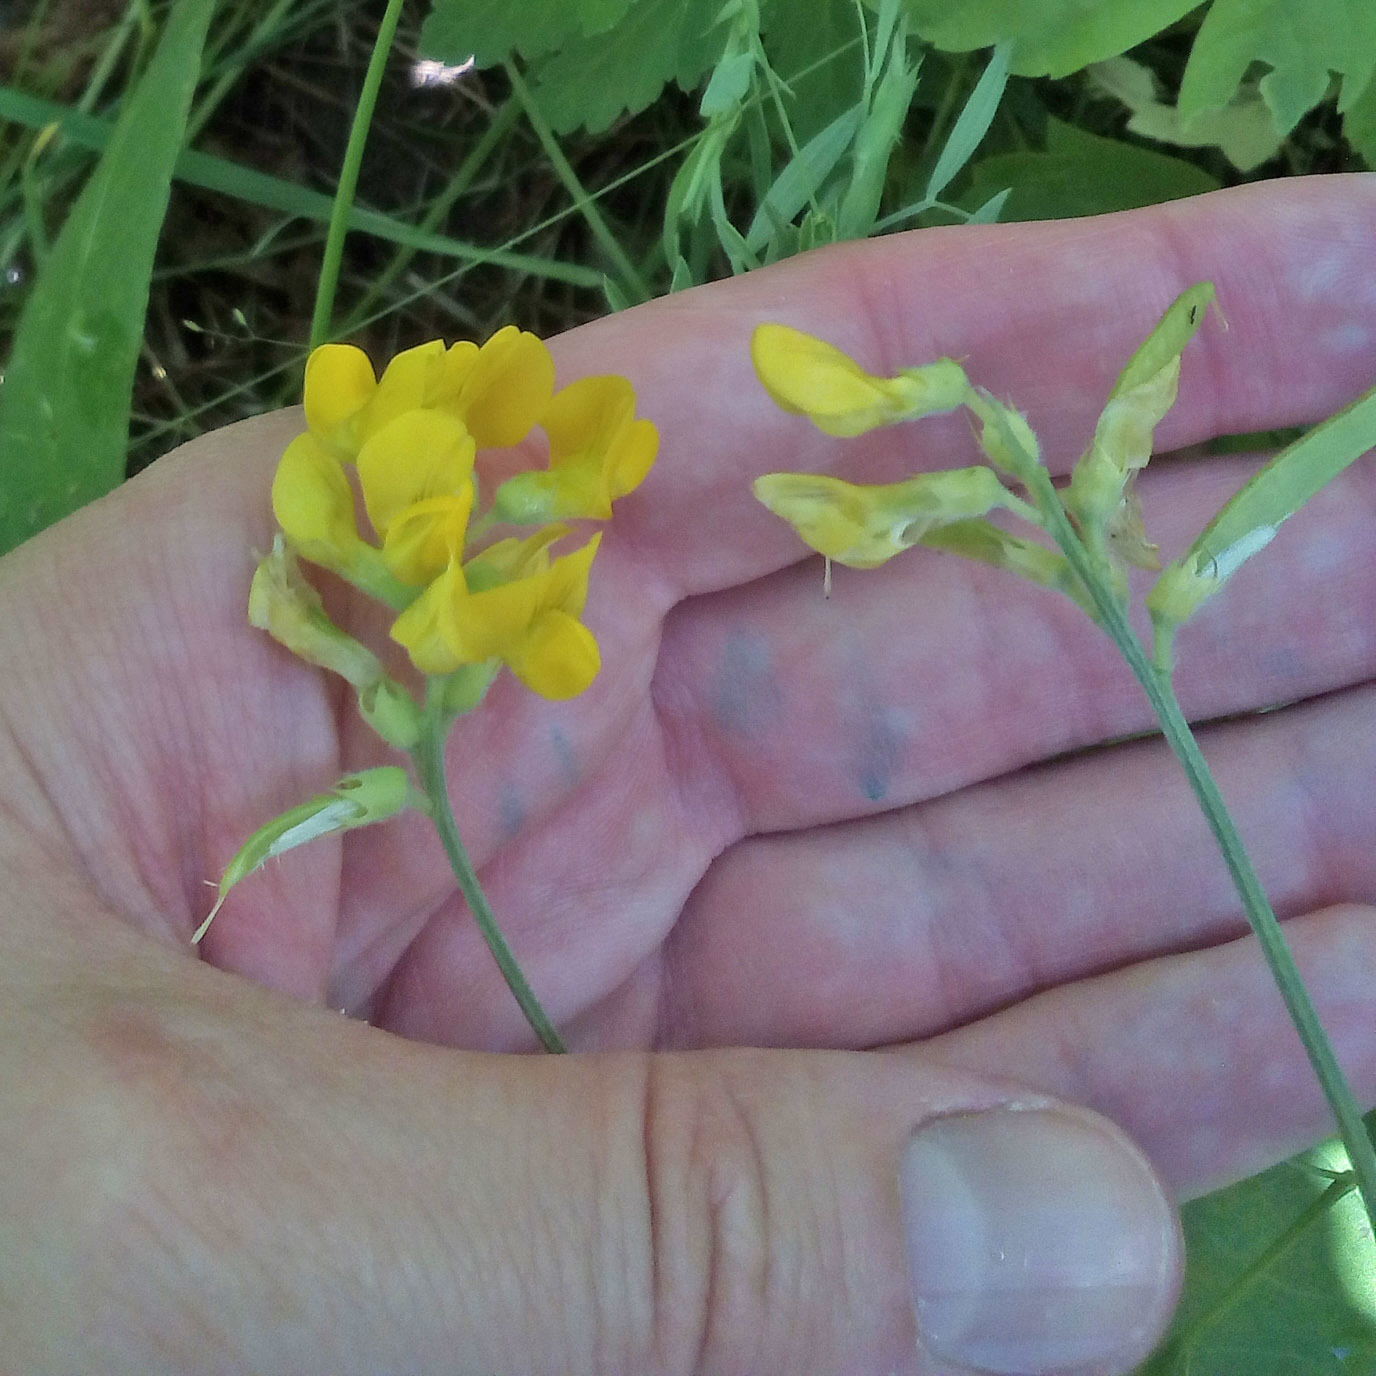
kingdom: Plantae
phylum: Tracheophyta
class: Magnoliopsida
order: Fabales
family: Fabaceae
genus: Lathyrus
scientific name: Lathyrus pratensis
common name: Meadow vetchling
